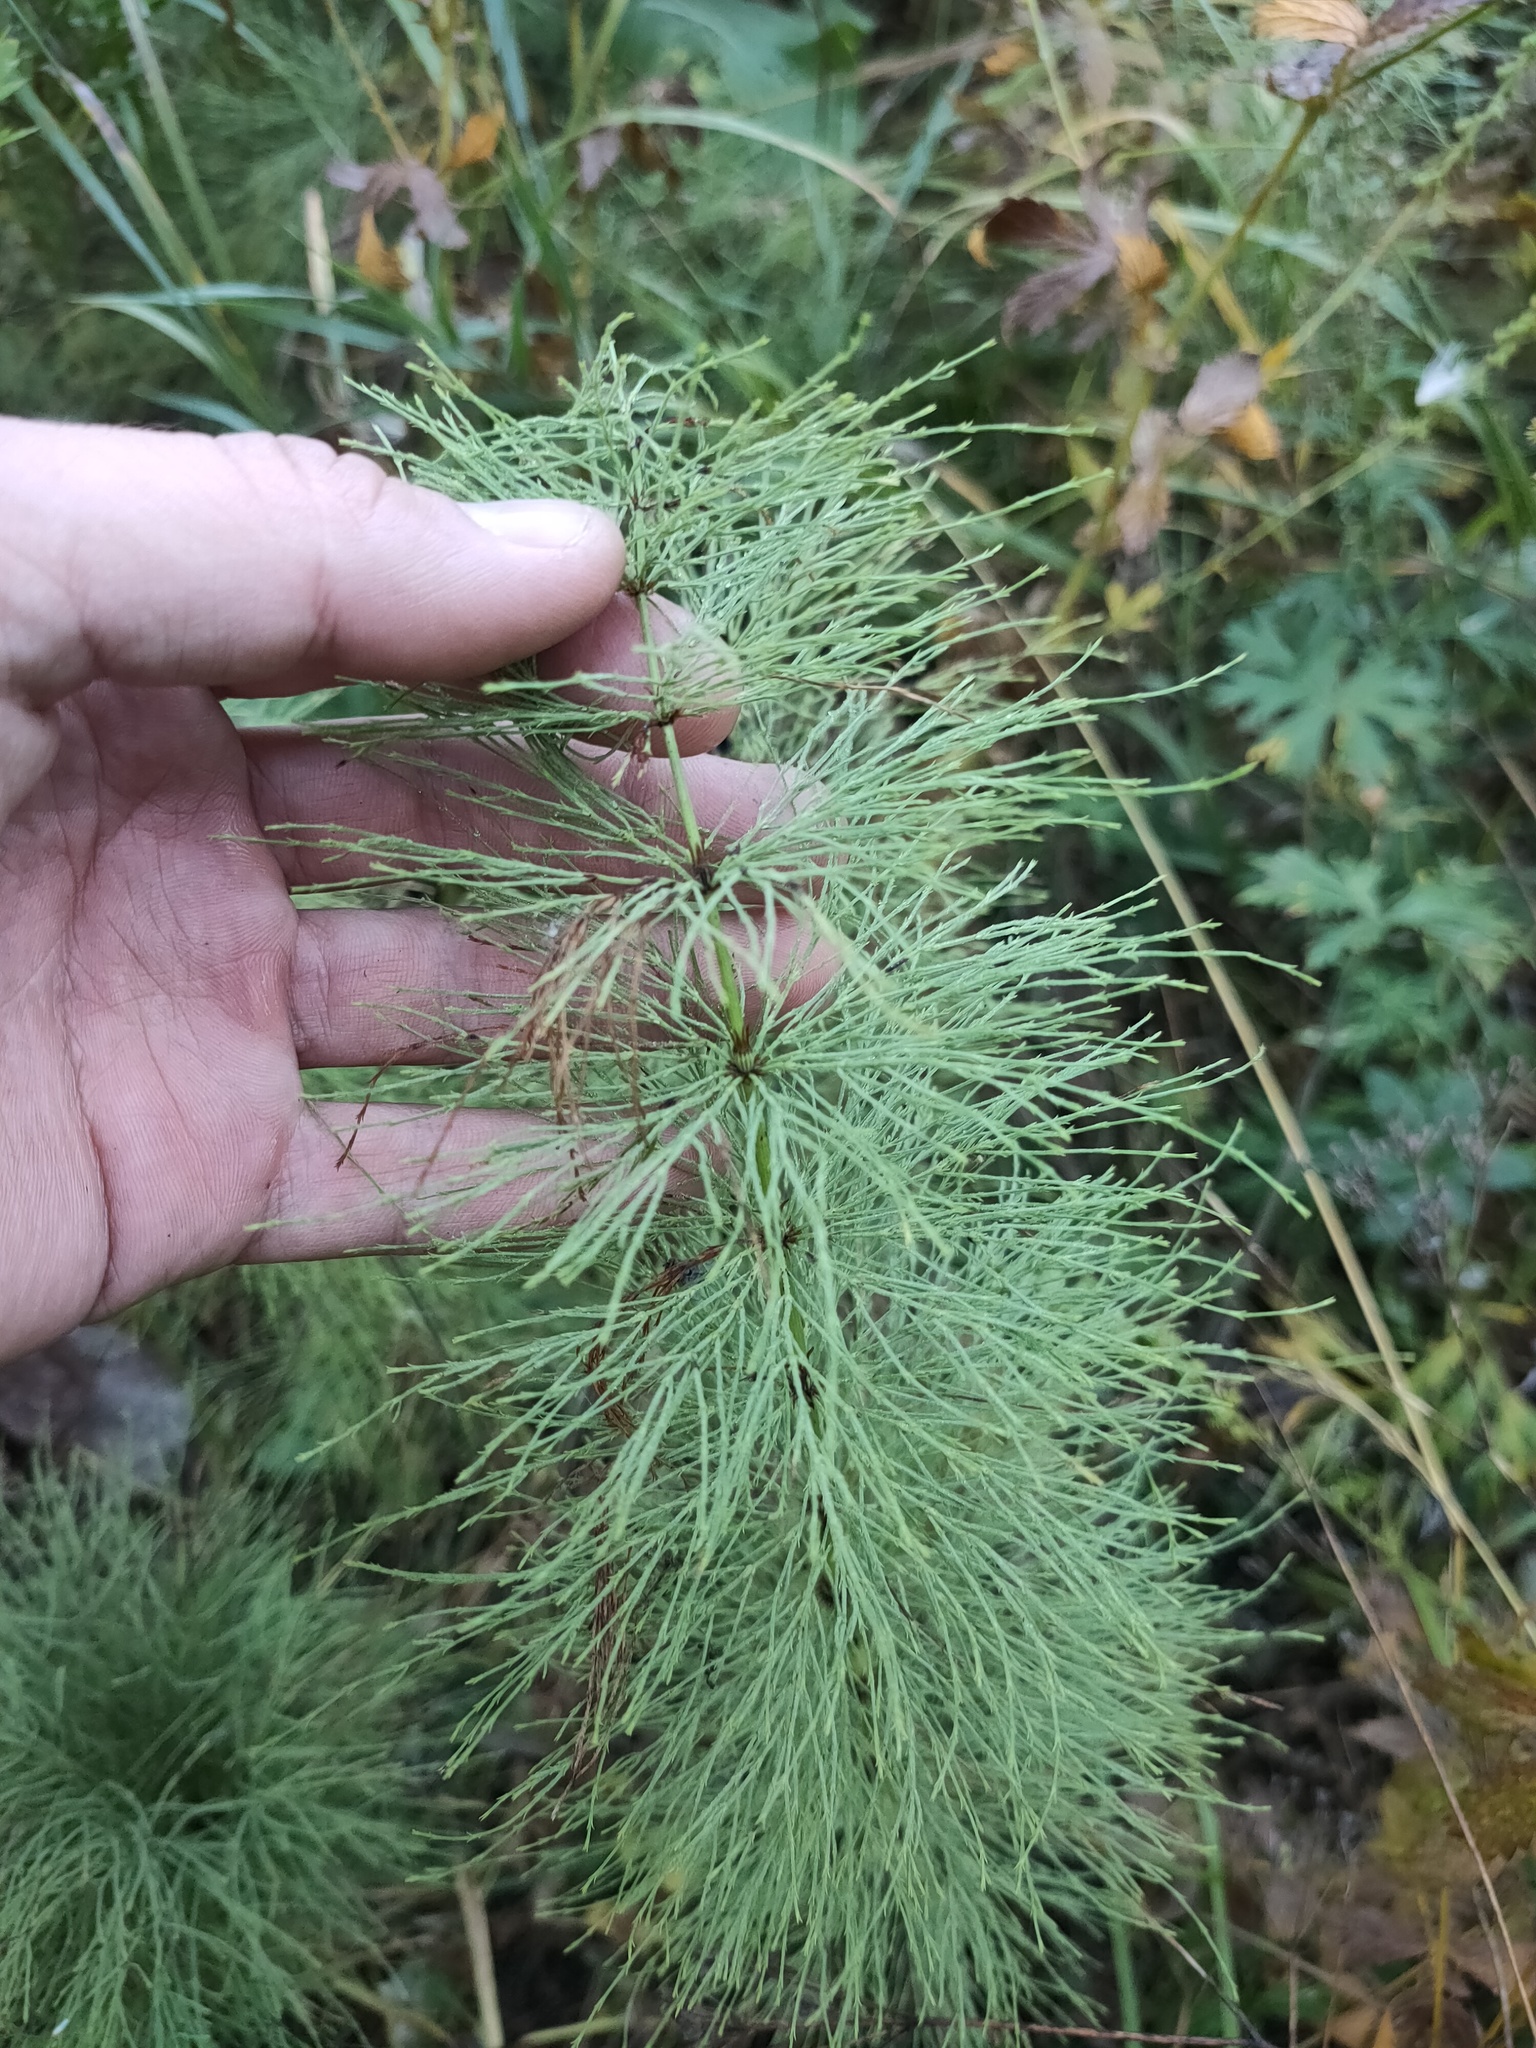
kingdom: Plantae
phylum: Tracheophyta
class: Polypodiopsida
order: Equisetales
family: Equisetaceae
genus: Equisetum
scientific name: Equisetum sylvaticum
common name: Wood horsetail
